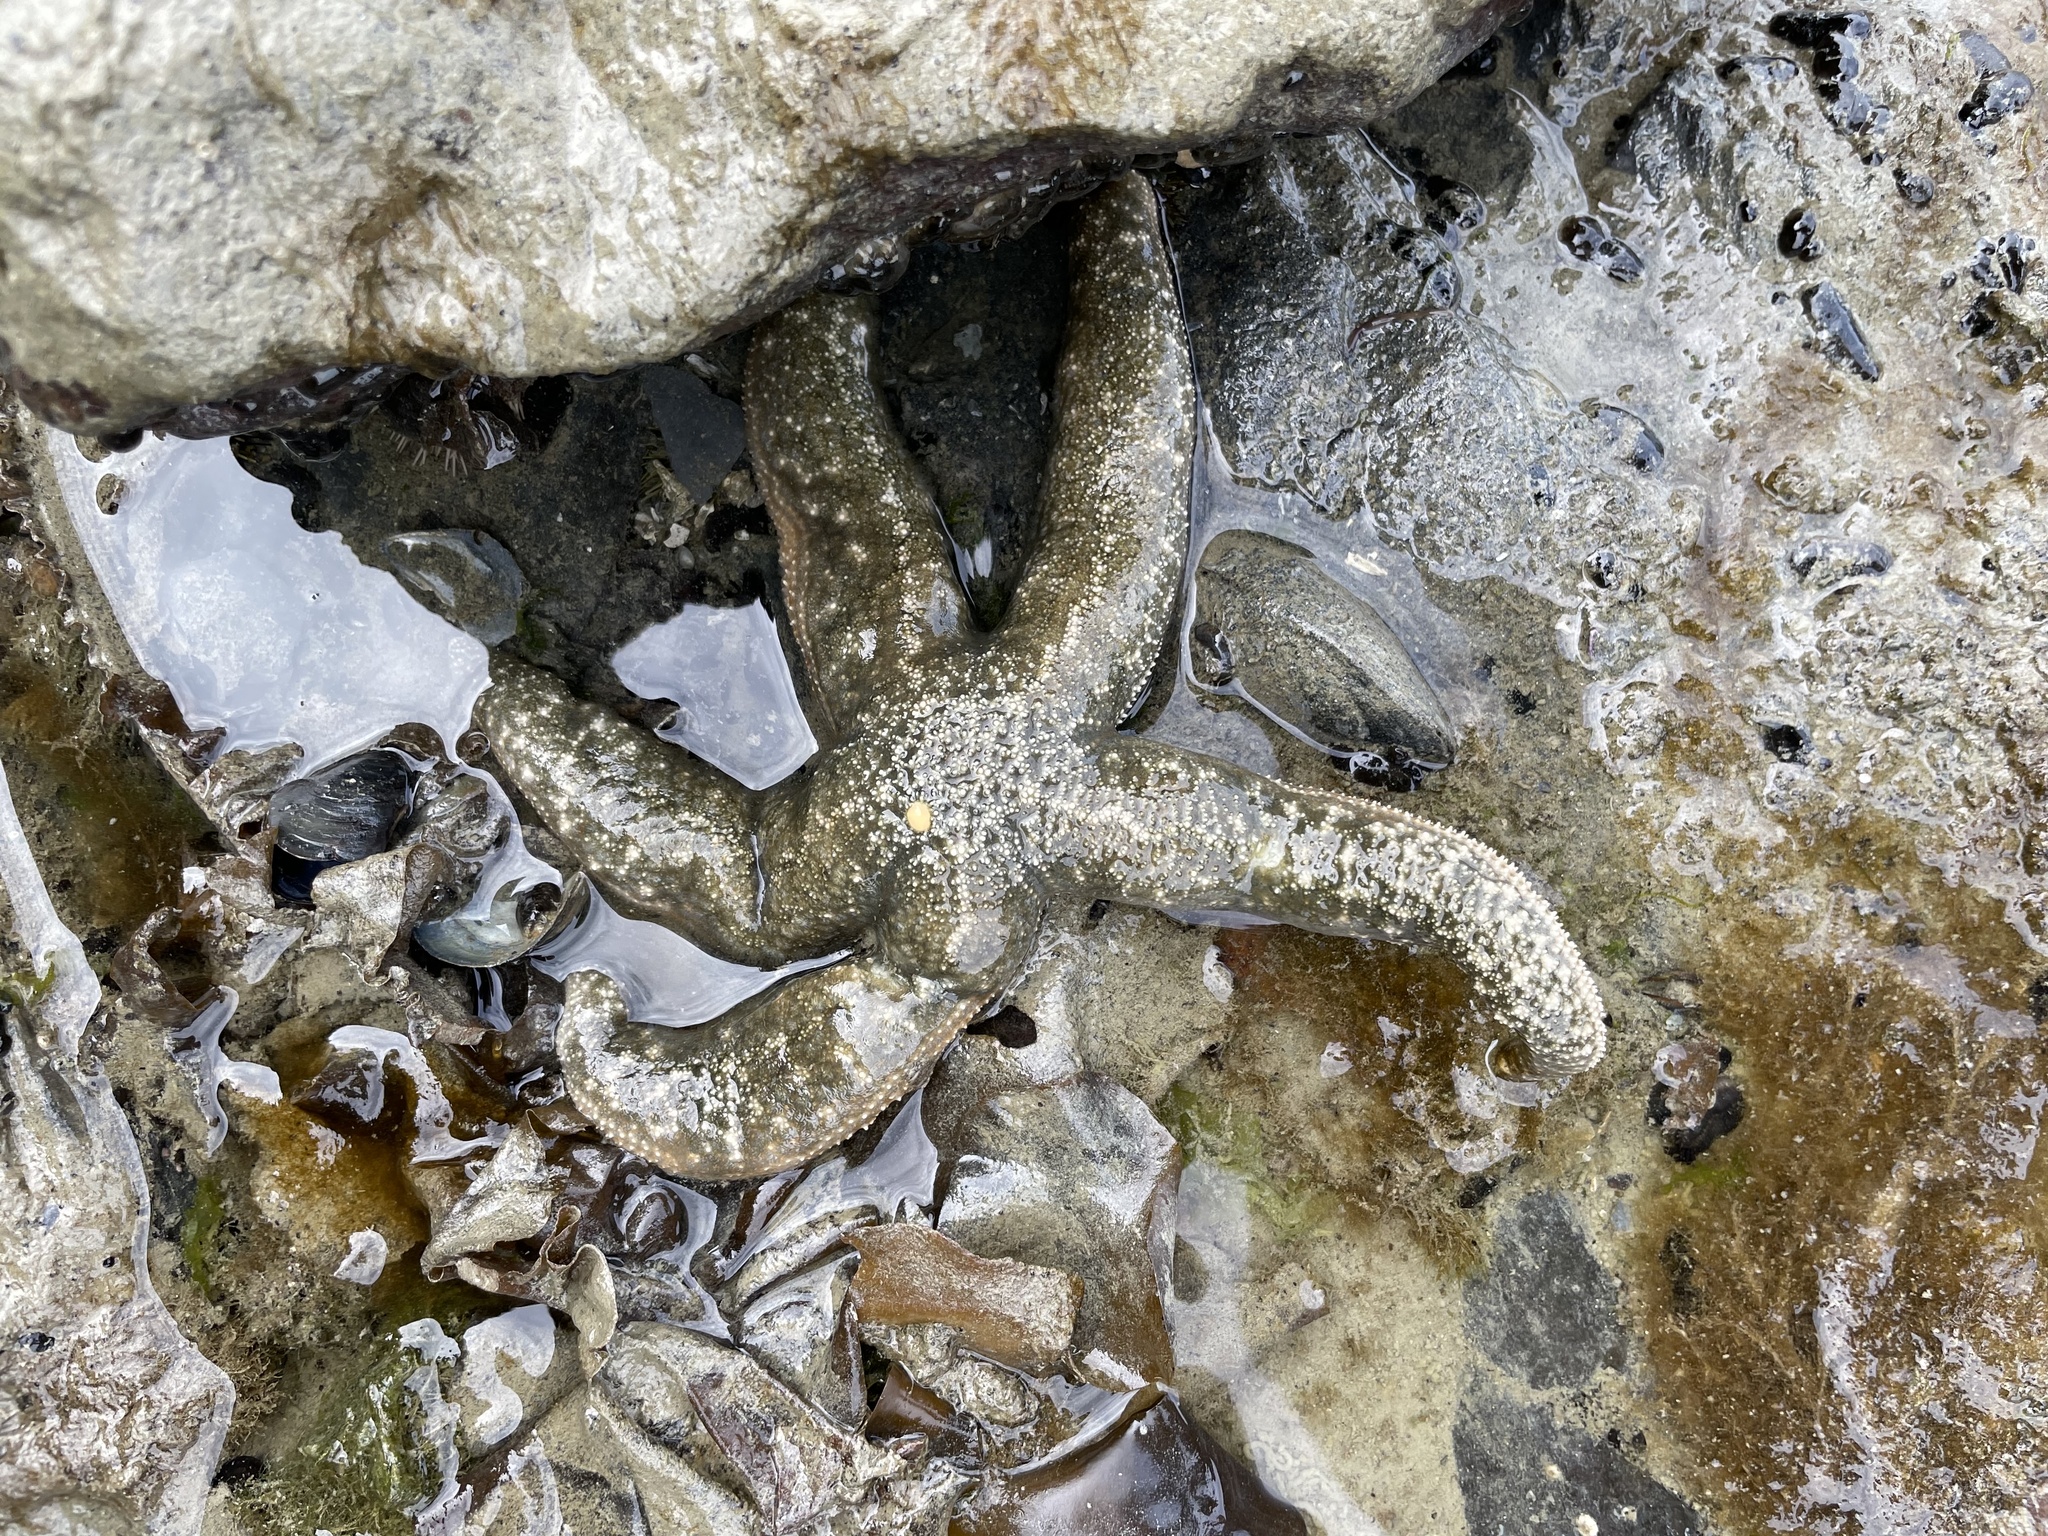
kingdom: Animalia
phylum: Echinodermata
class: Asteroidea
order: Forcipulatida
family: Asteriidae
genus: Evasterias
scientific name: Evasterias troschelii
